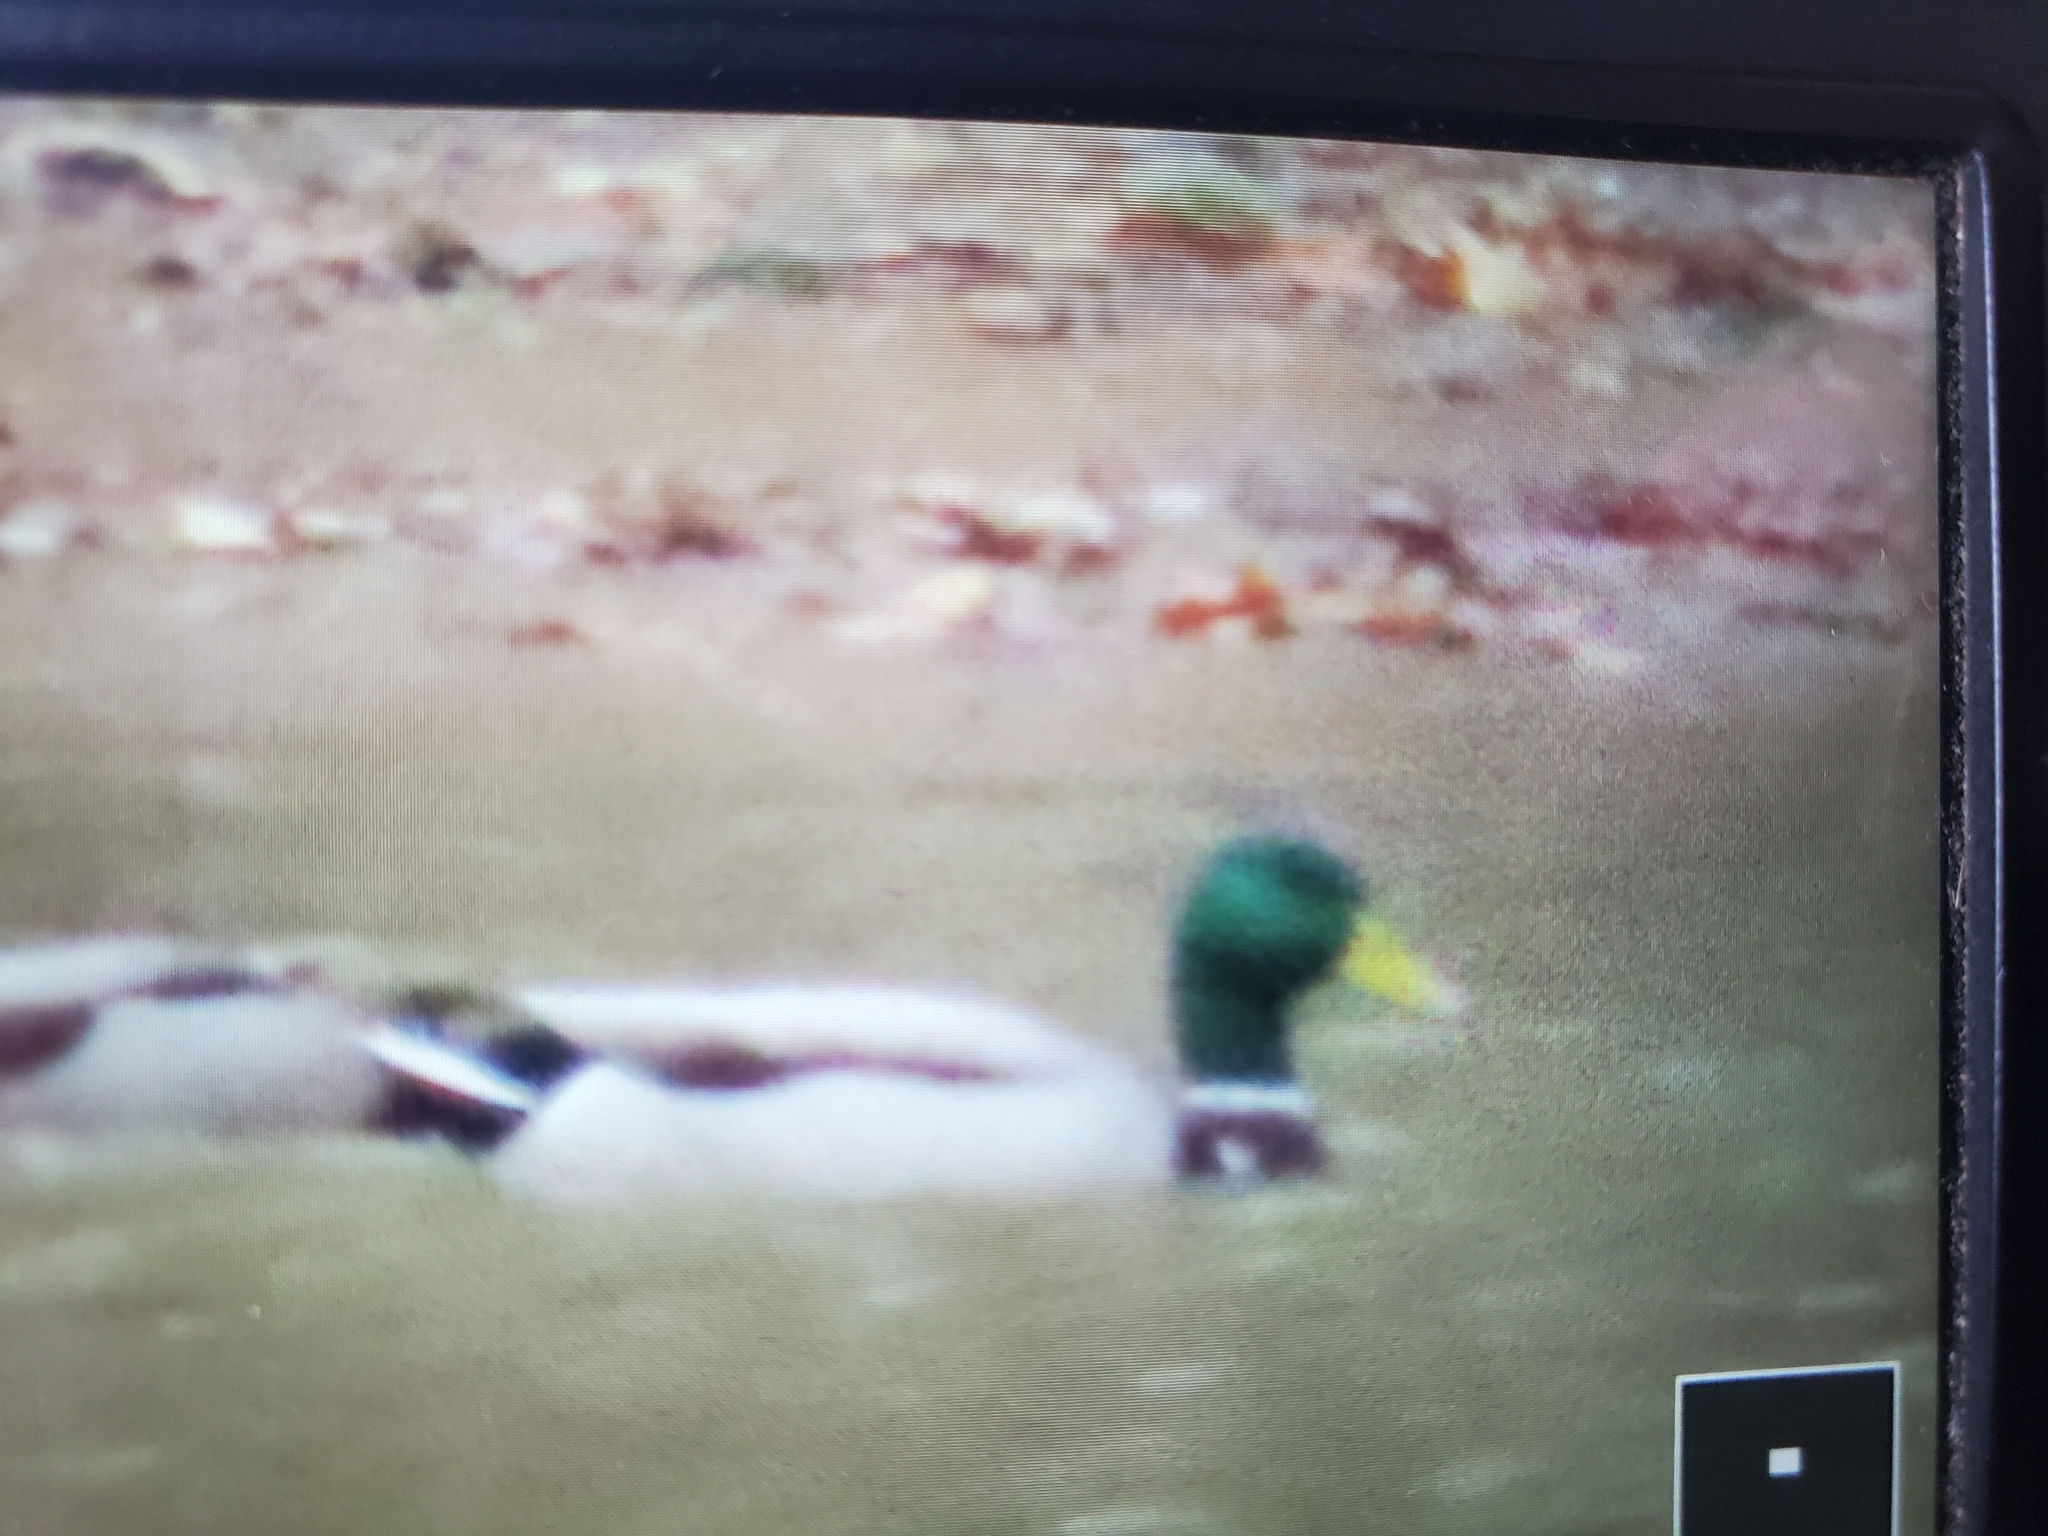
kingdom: Animalia
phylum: Chordata
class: Aves
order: Anseriformes
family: Anatidae
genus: Anas
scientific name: Anas platyrhynchos
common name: Mallard
